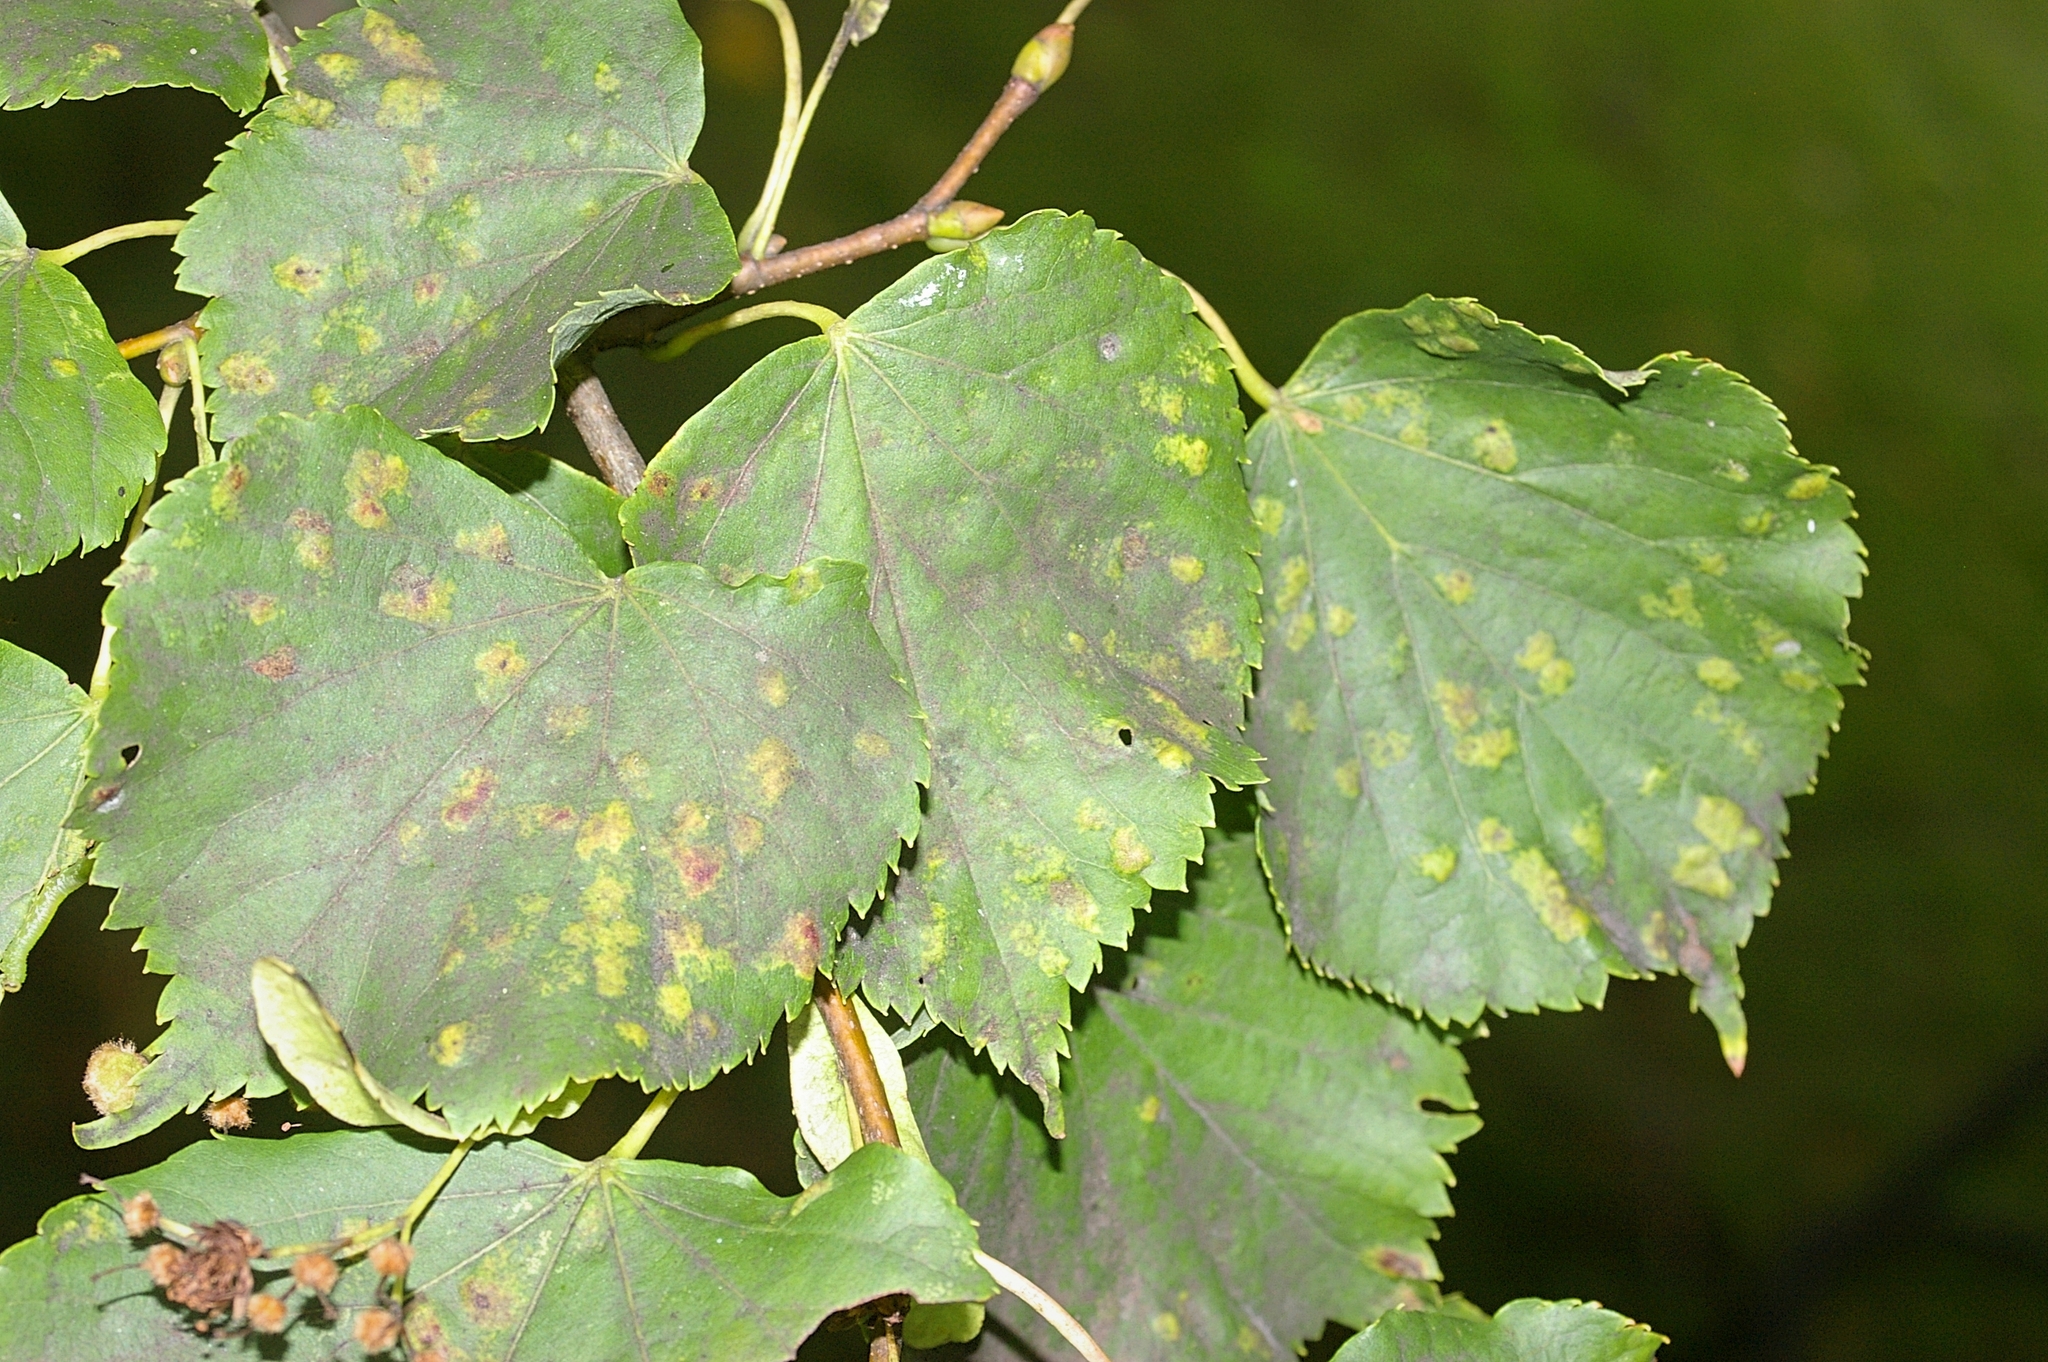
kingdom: Plantae
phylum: Tracheophyta
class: Magnoliopsida
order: Malvales
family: Malvaceae
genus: Tilia
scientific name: Tilia europaea
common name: European linden
